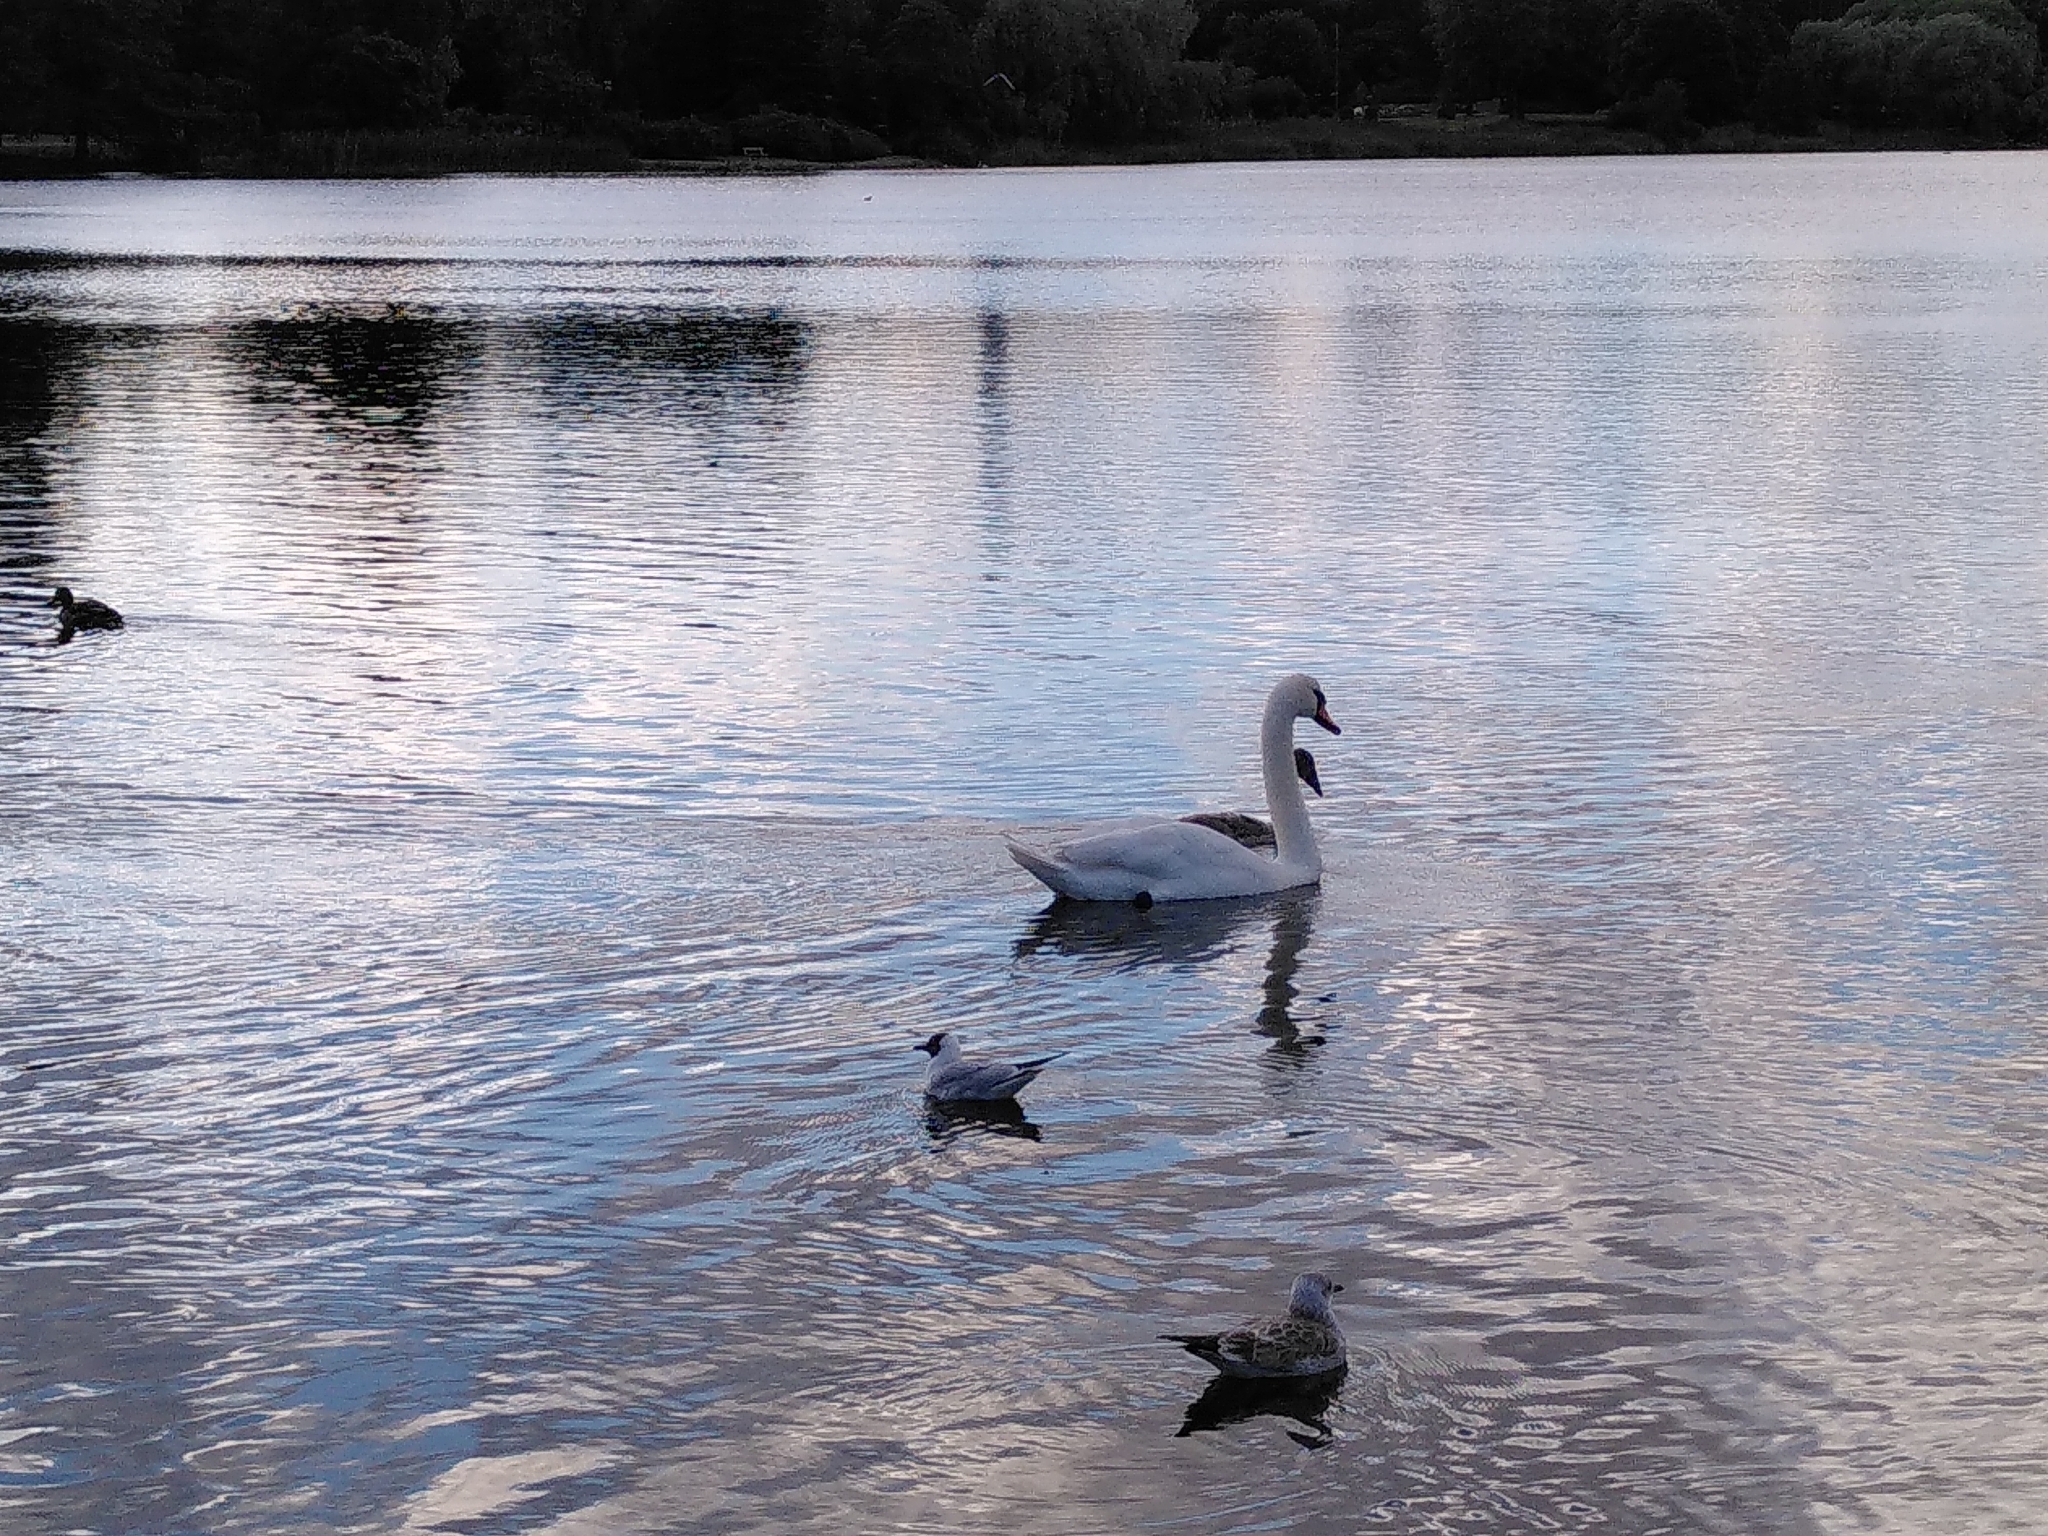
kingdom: Animalia
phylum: Chordata
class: Aves
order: Anseriformes
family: Anatidae
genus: Cygnus
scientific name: Cygnus olor
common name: Mute swan
